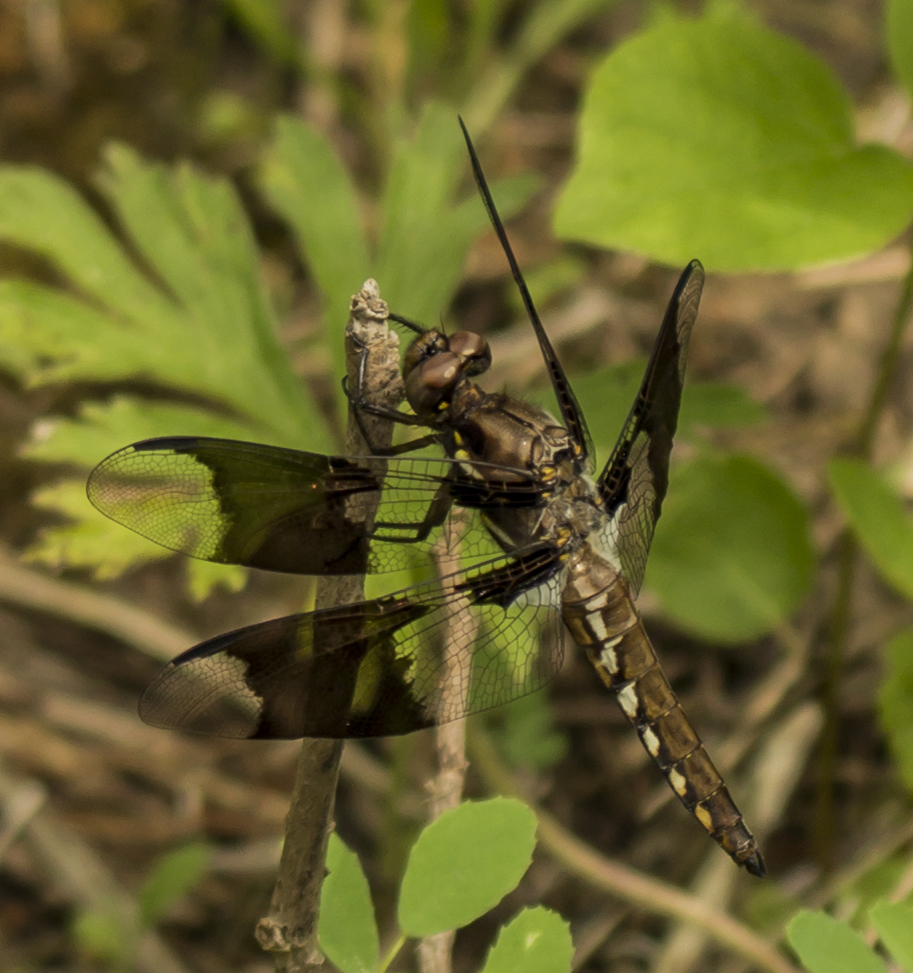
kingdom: Animalia
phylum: Arthropoda
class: Insecta
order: Odonata
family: Libellulidae
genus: Plathemis
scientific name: Plathemis lydia
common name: Common whitetail
